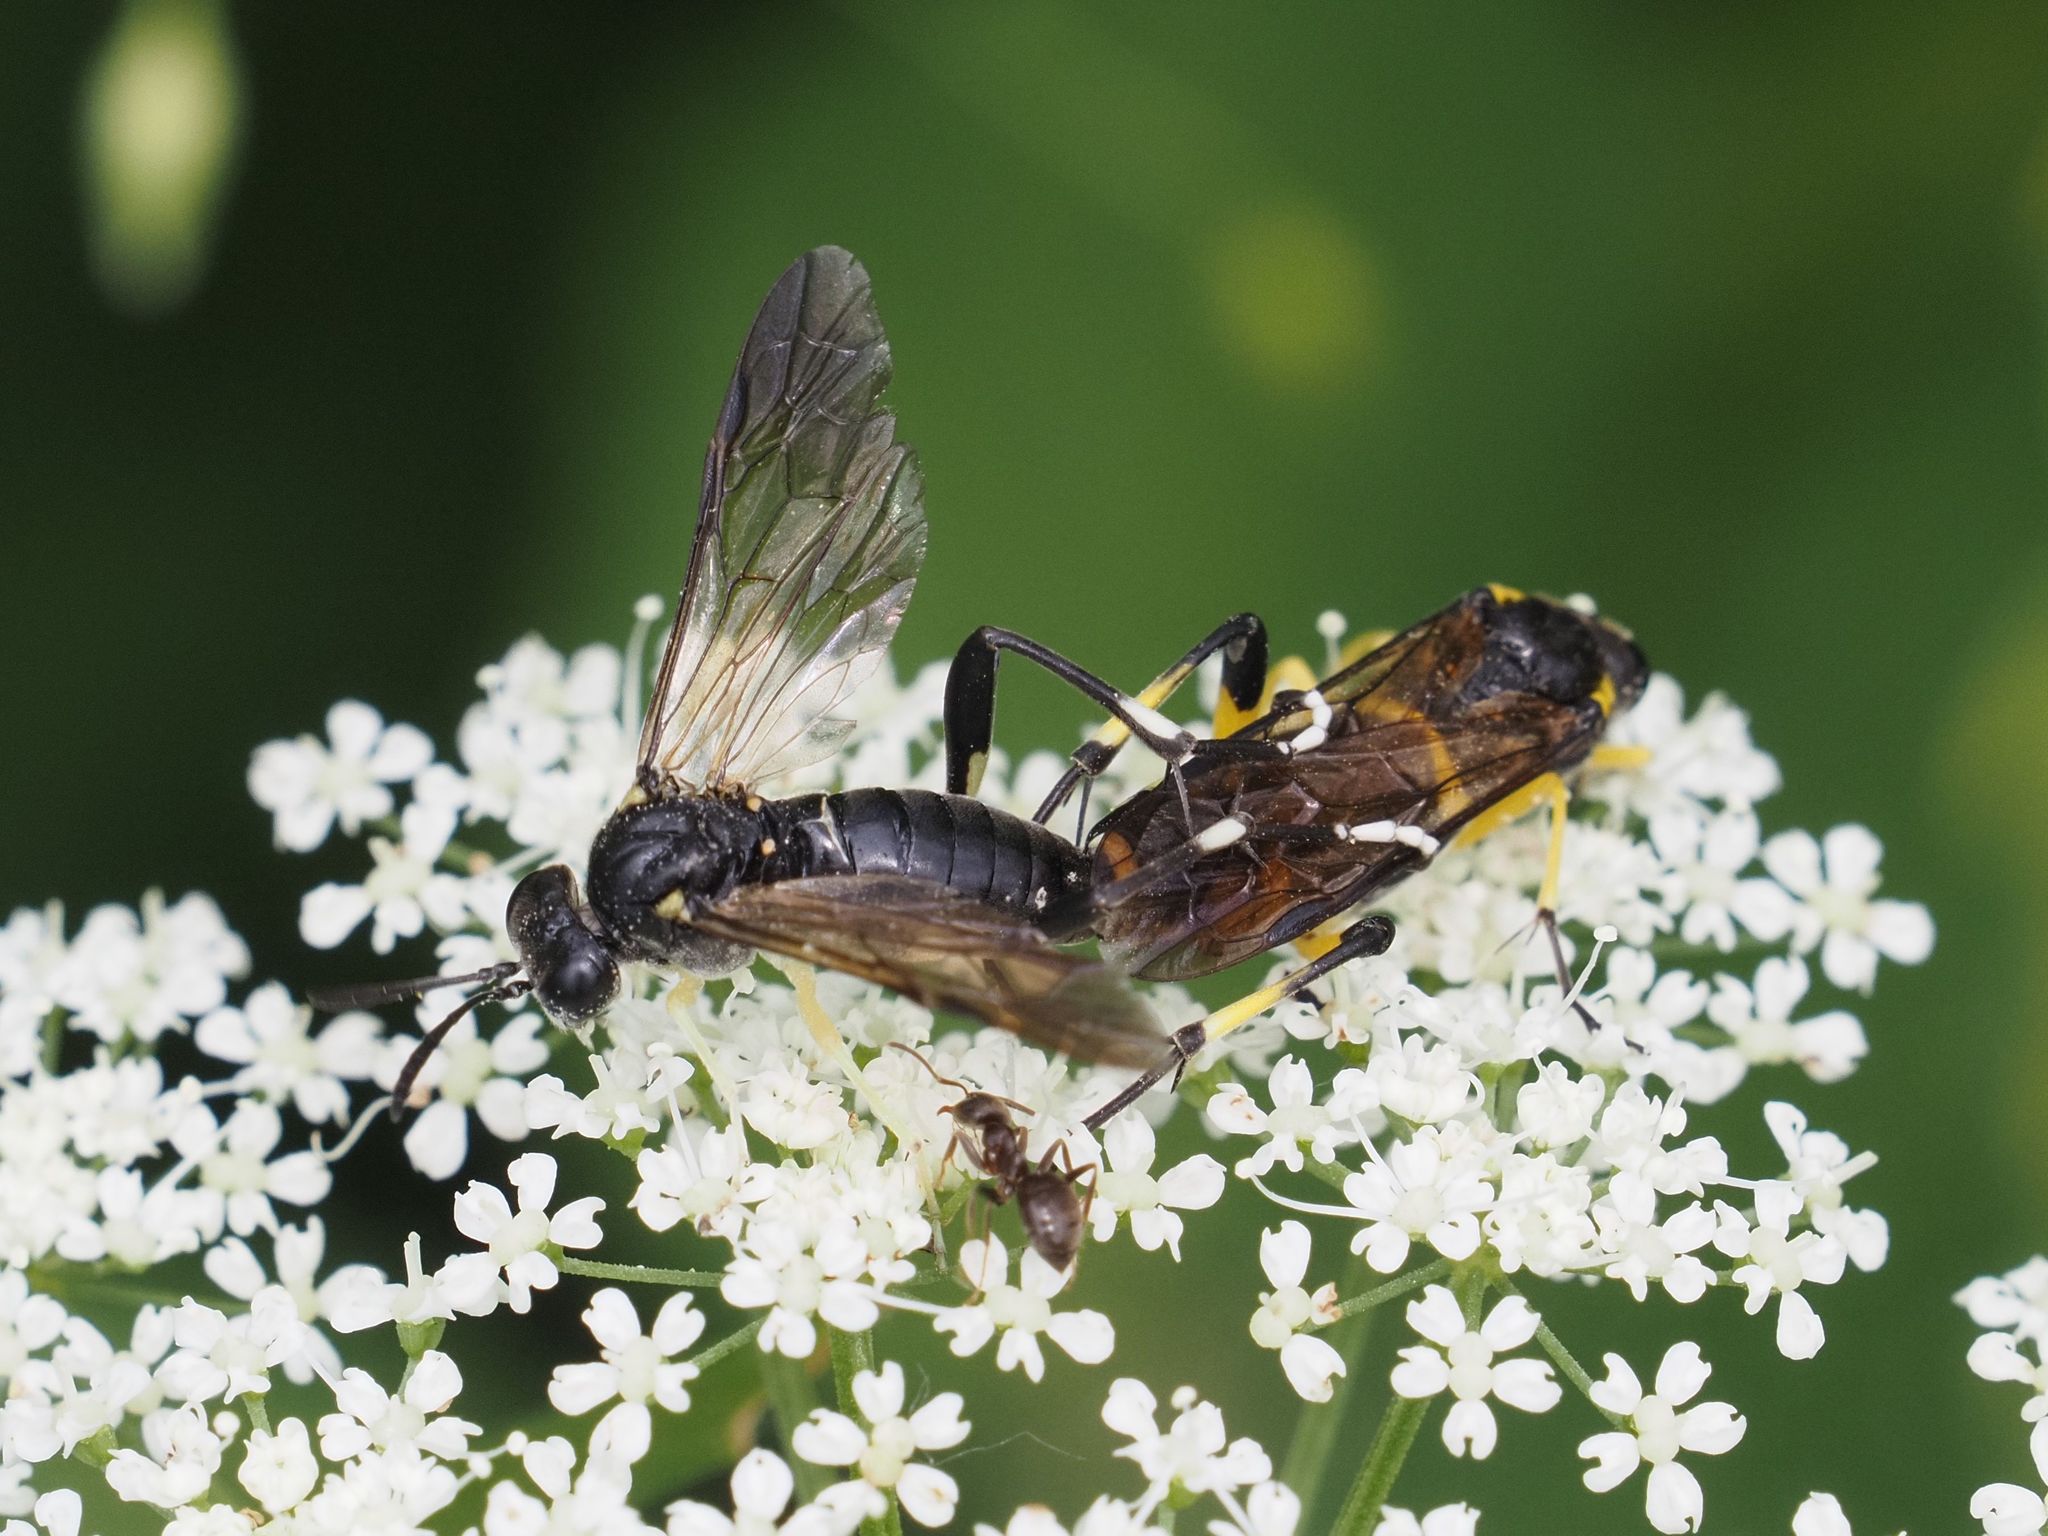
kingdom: Animalia
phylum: Arthropoda
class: Insecta
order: Hymenoptera
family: Tenthredinidae
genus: Macrophya
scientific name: Macrophya montana
